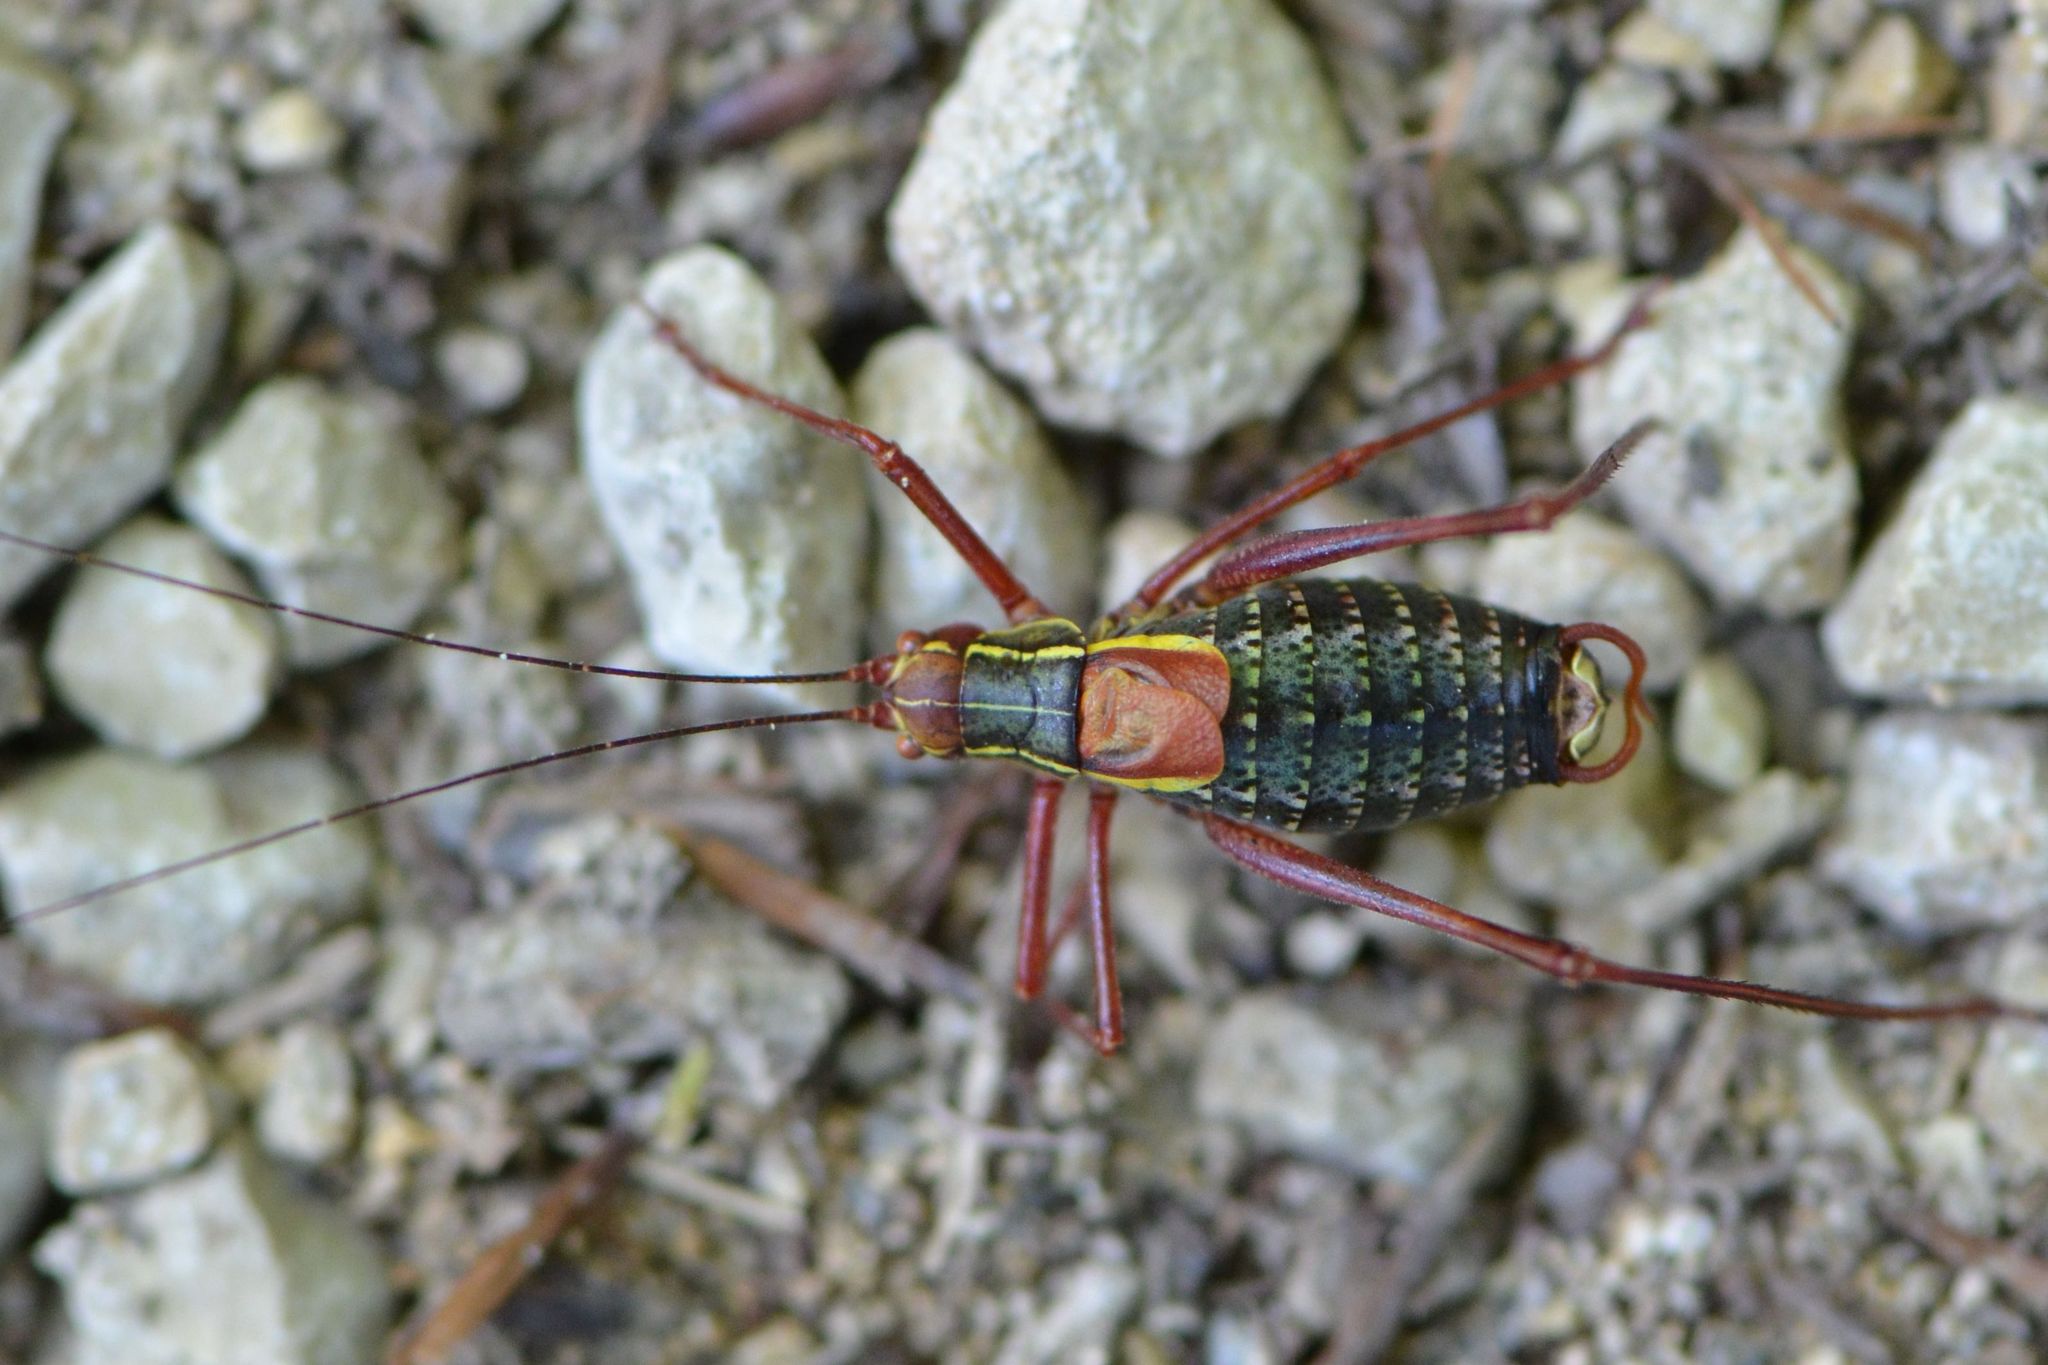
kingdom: Animalia
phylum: Arthropoda
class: Insecta
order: Orthoptera
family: Tettigoniidae
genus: Barbitistes
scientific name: Barbitistes serricauda
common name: Saw-tailed bush-cricket
